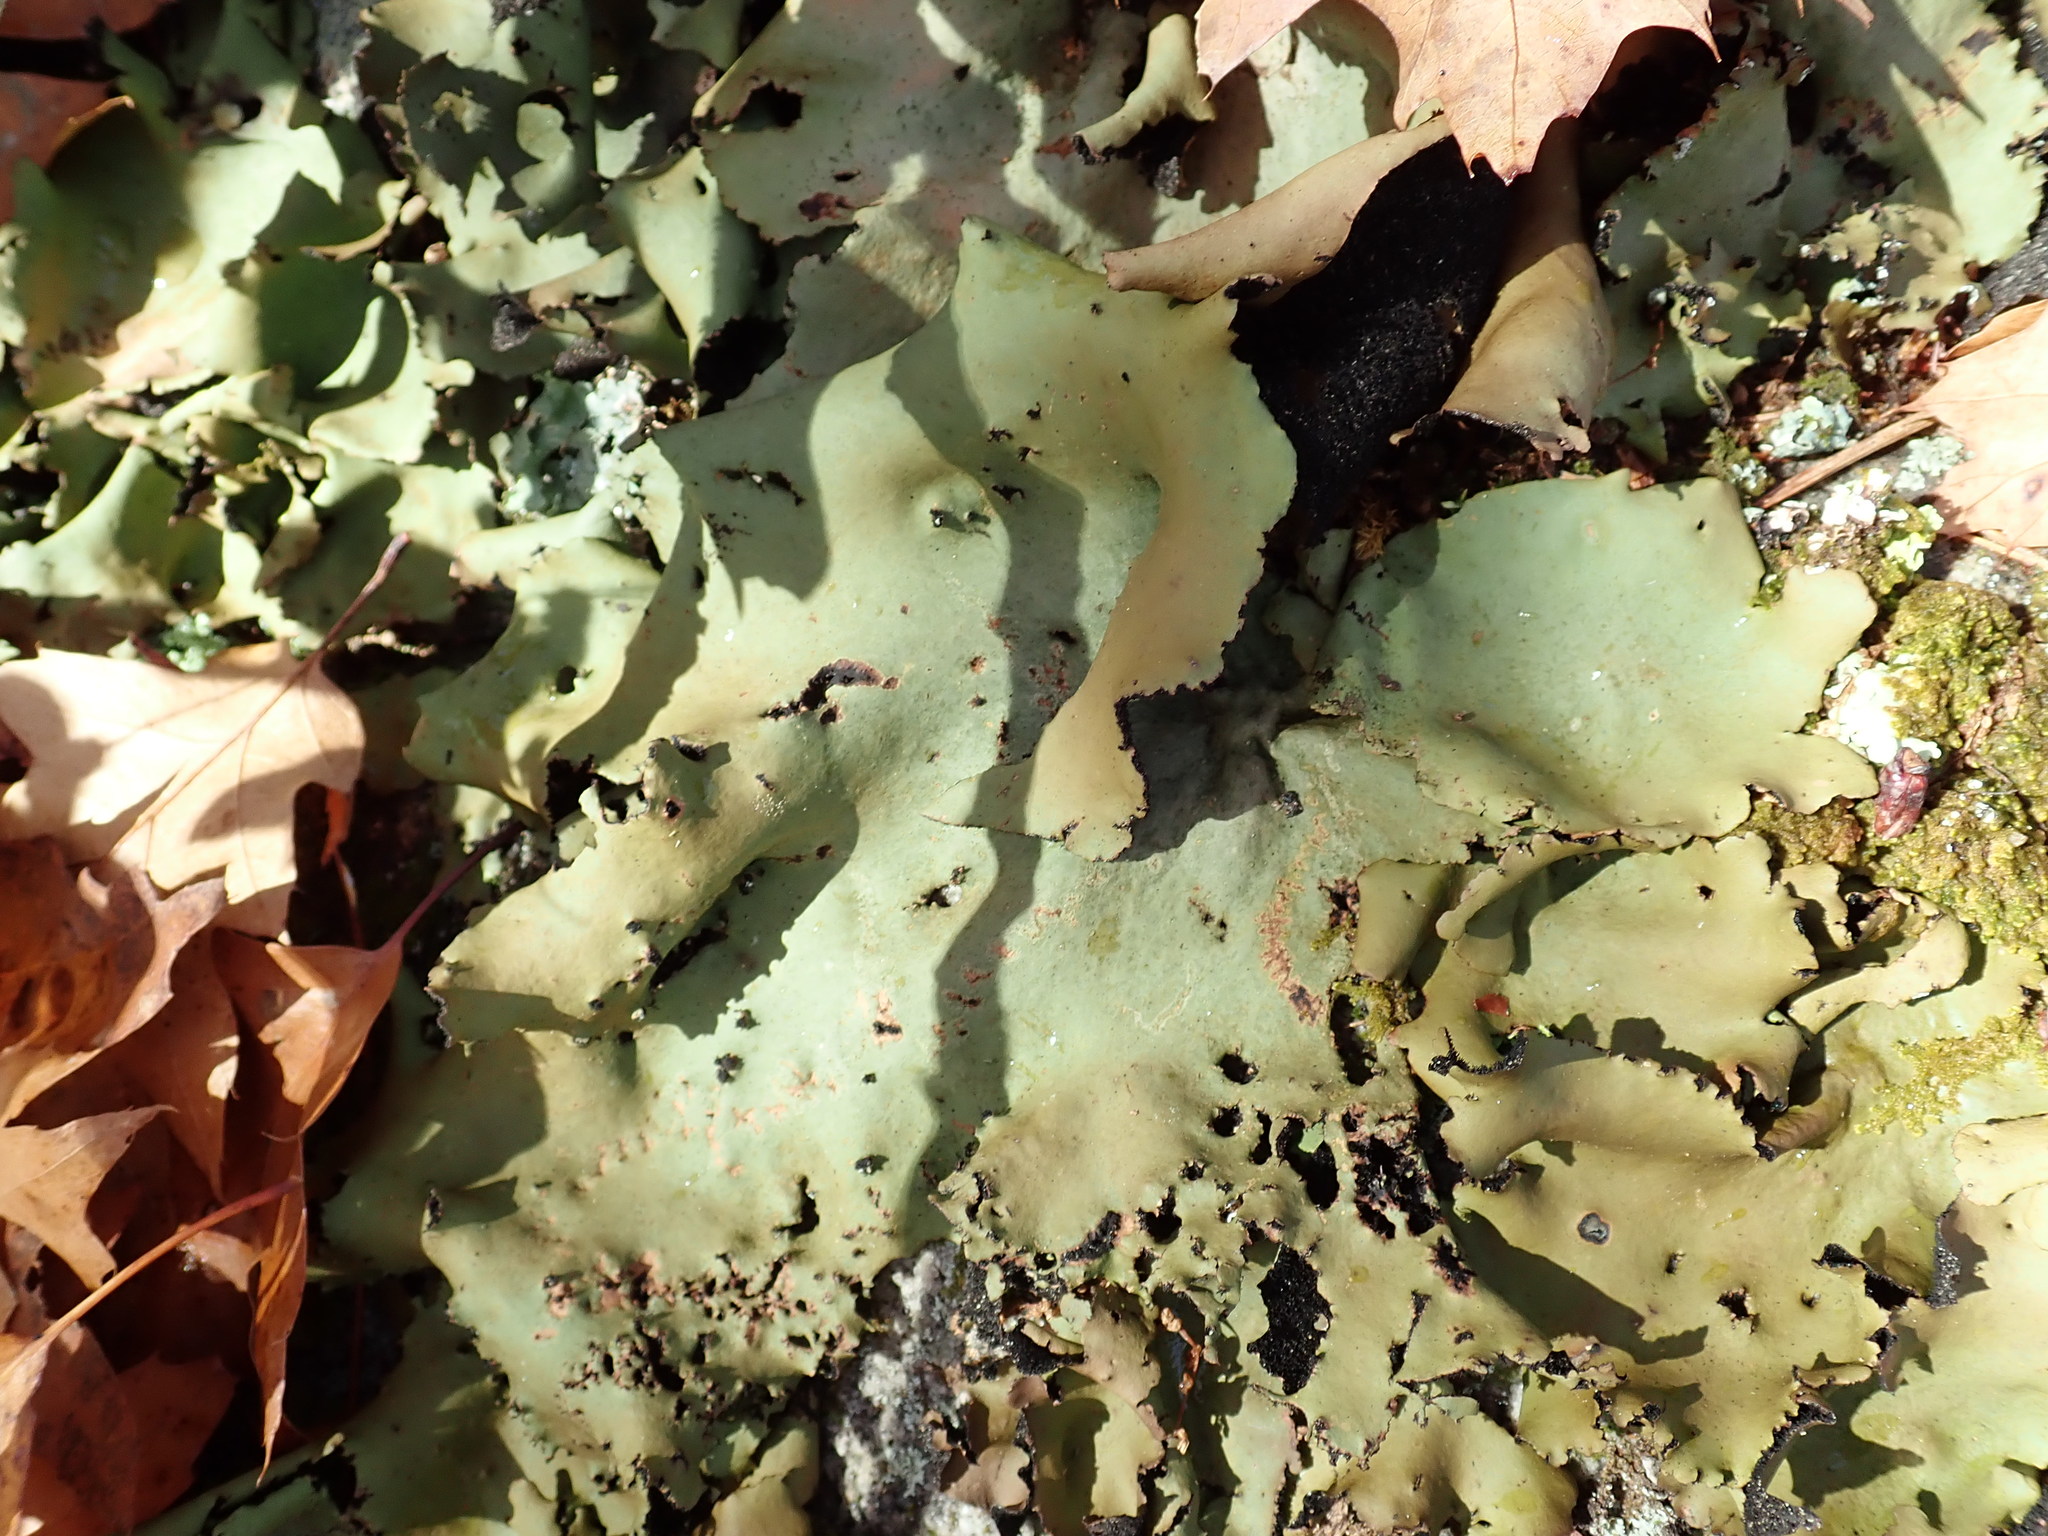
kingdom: Fungi
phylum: Ascomycota
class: Lecanoromycetes
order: Umbilicariales
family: Umbilicariaceae
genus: Umbilicaria
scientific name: Umbilicaria mammulata
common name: Smooth rock tripe
